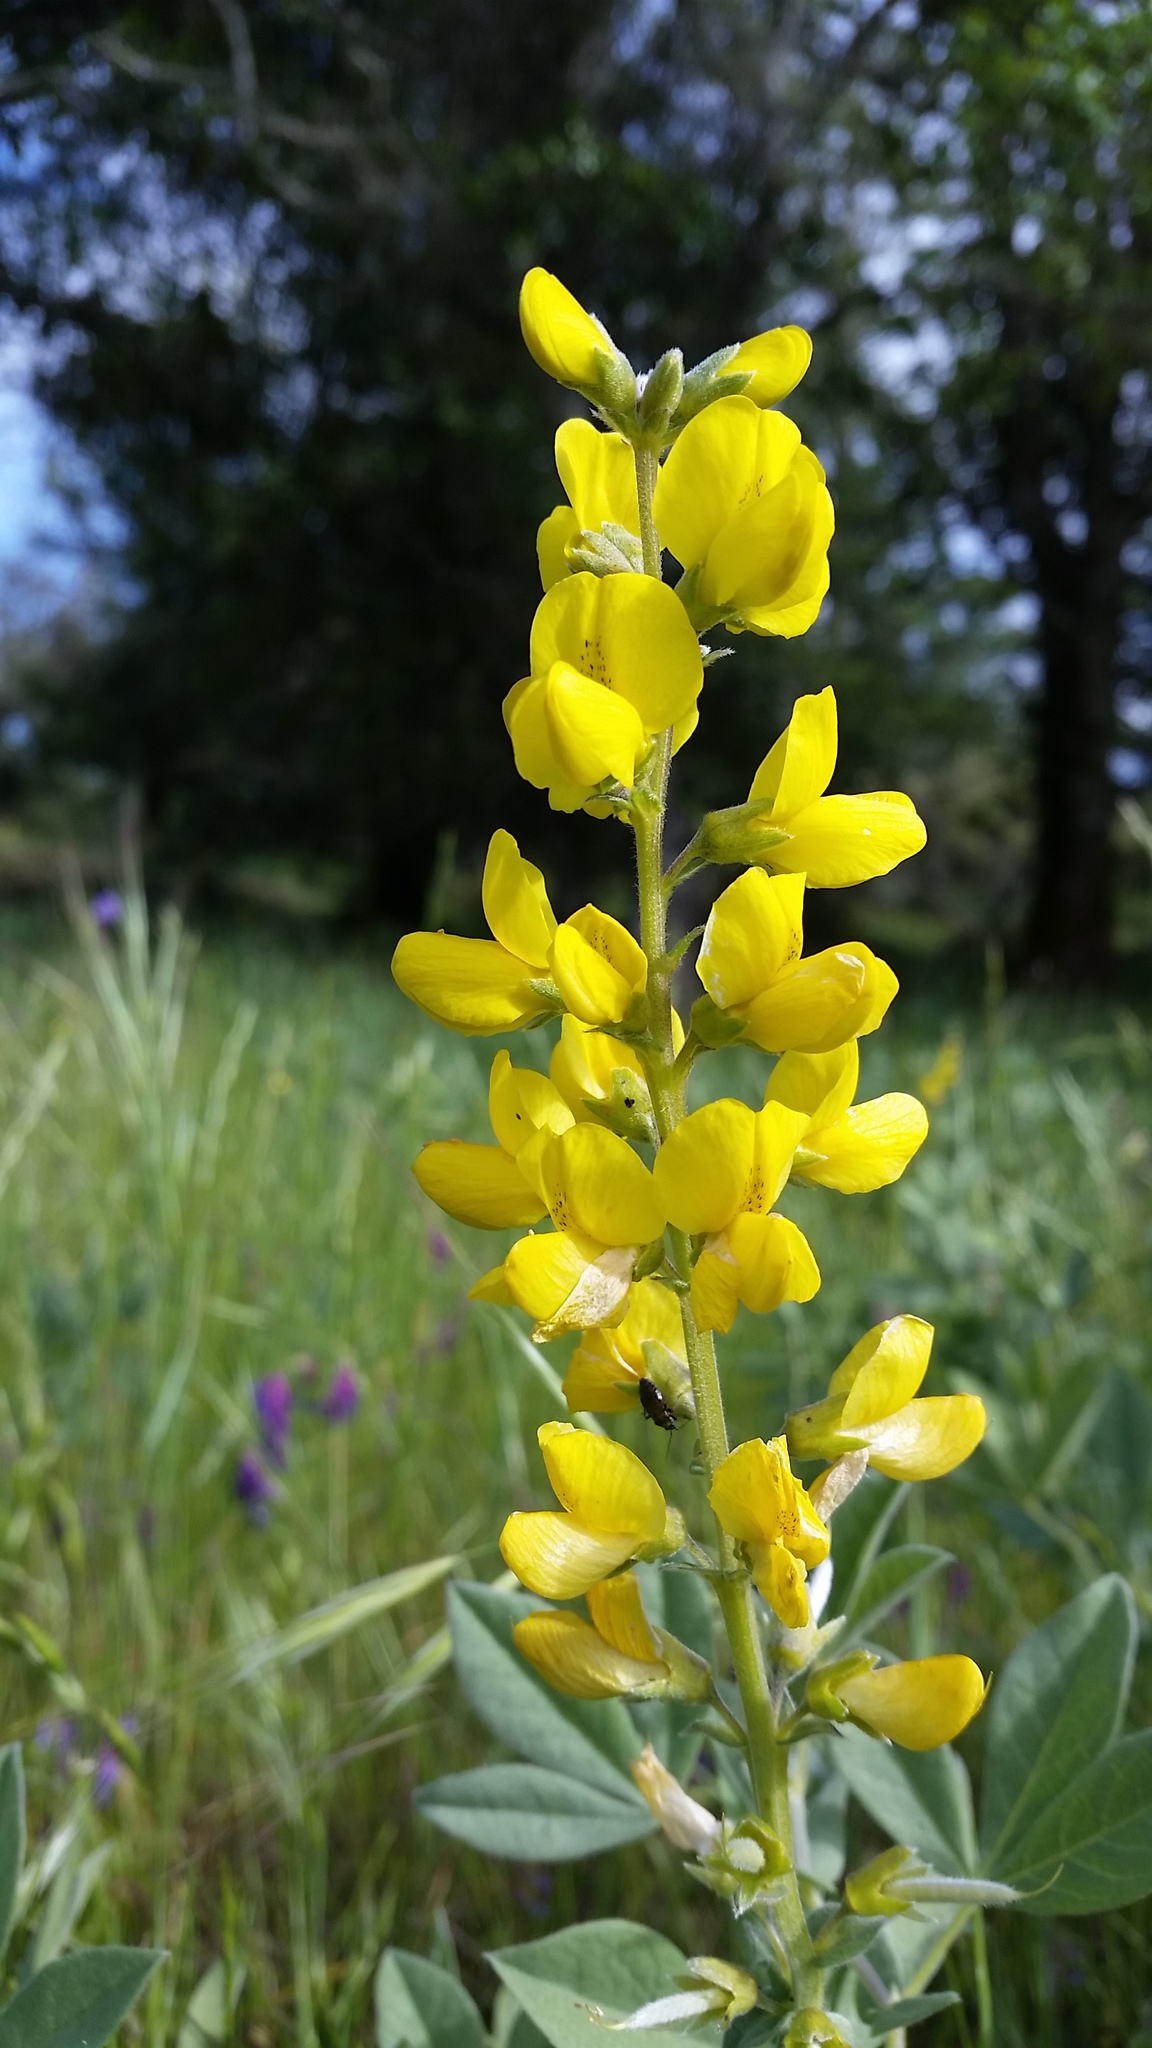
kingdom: Plantae
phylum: Tracheophyta
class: Magnoliopsida
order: Fabales
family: Fabaceae
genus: Thermopsis
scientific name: Thermopsis californica
